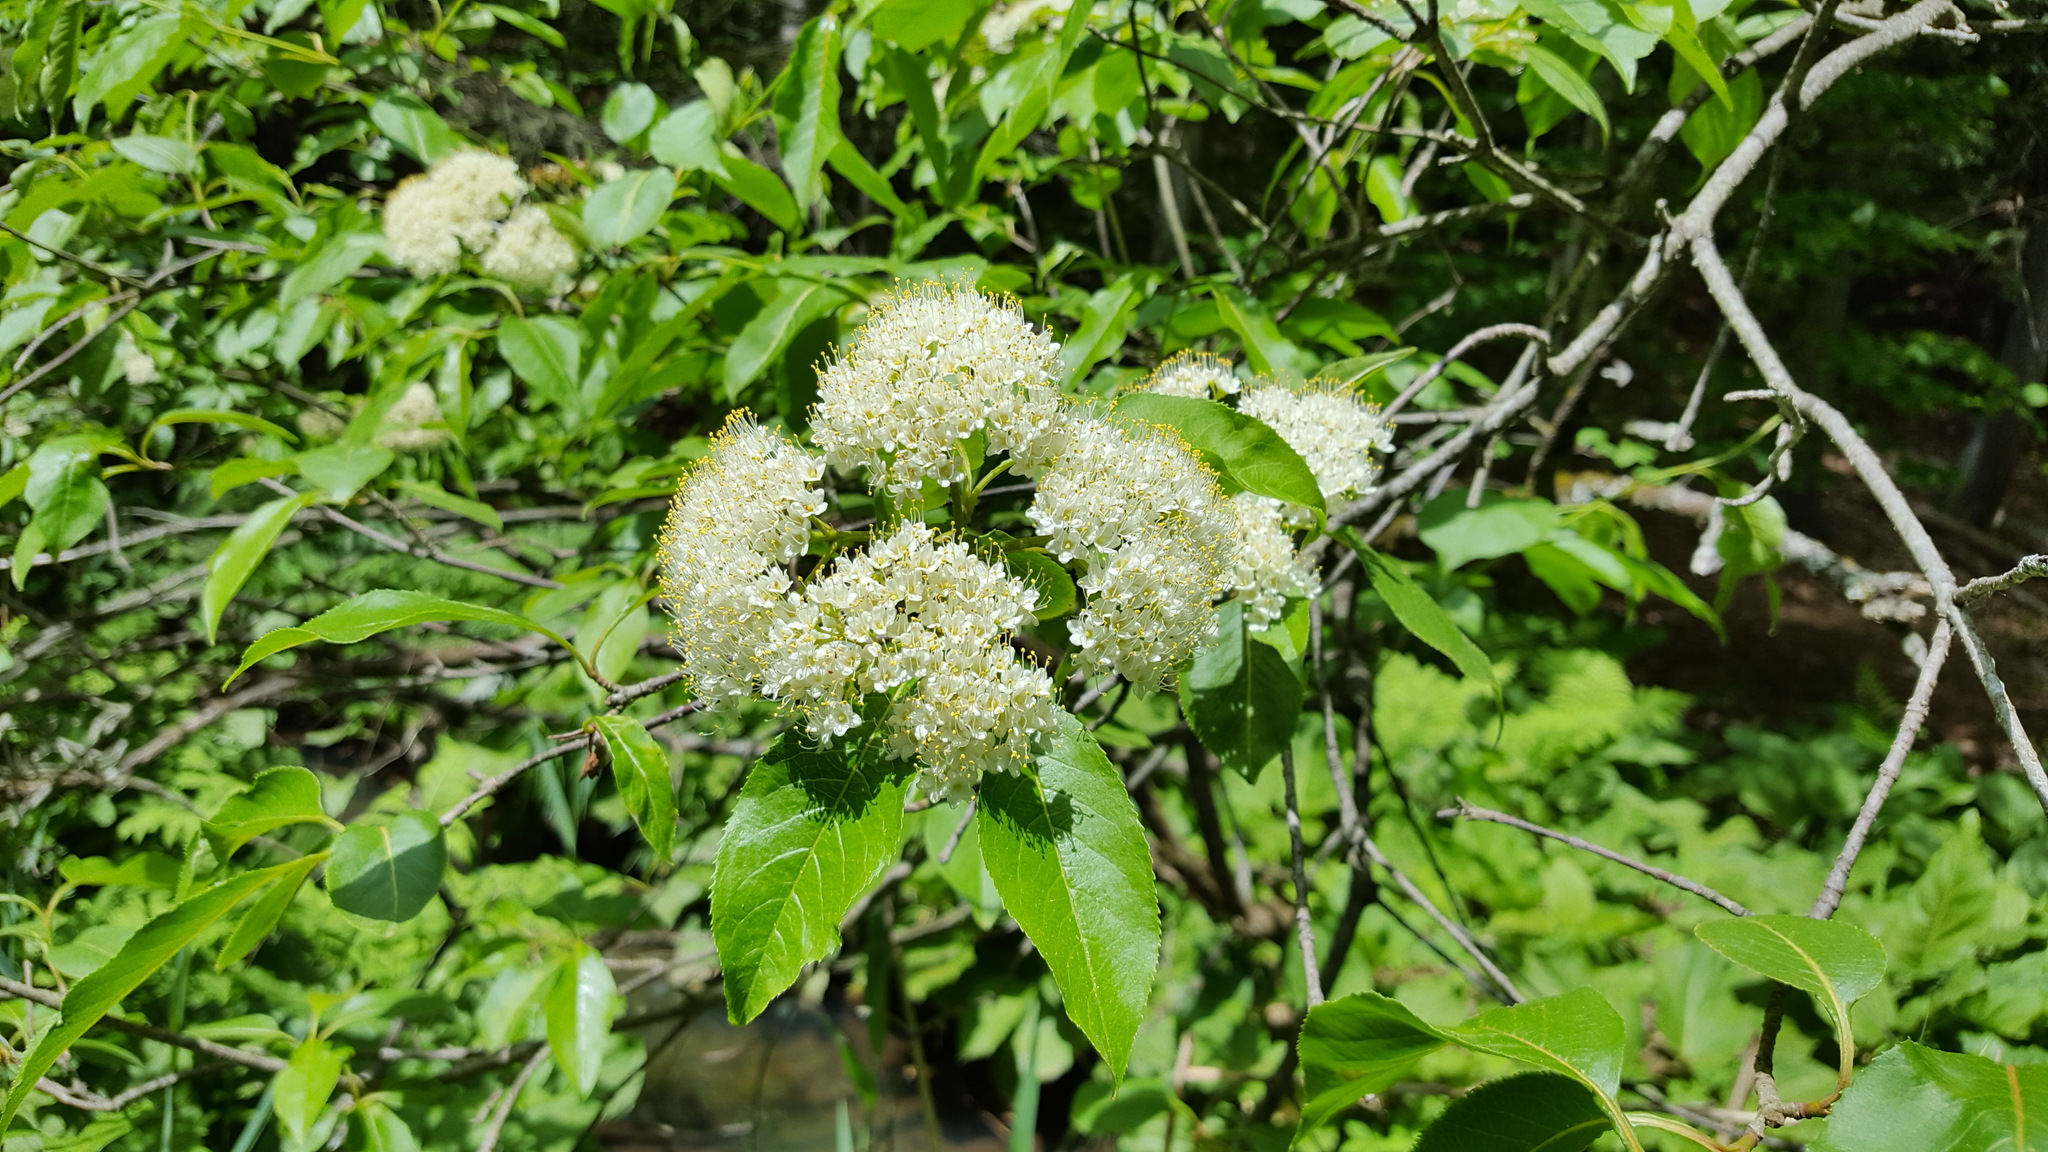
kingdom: Plantae
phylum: Tracheophyta
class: Magnoliopsida
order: Dipsacales
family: Viburnaceae
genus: Viburnum
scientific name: Viburnum lentago
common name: Black haw
